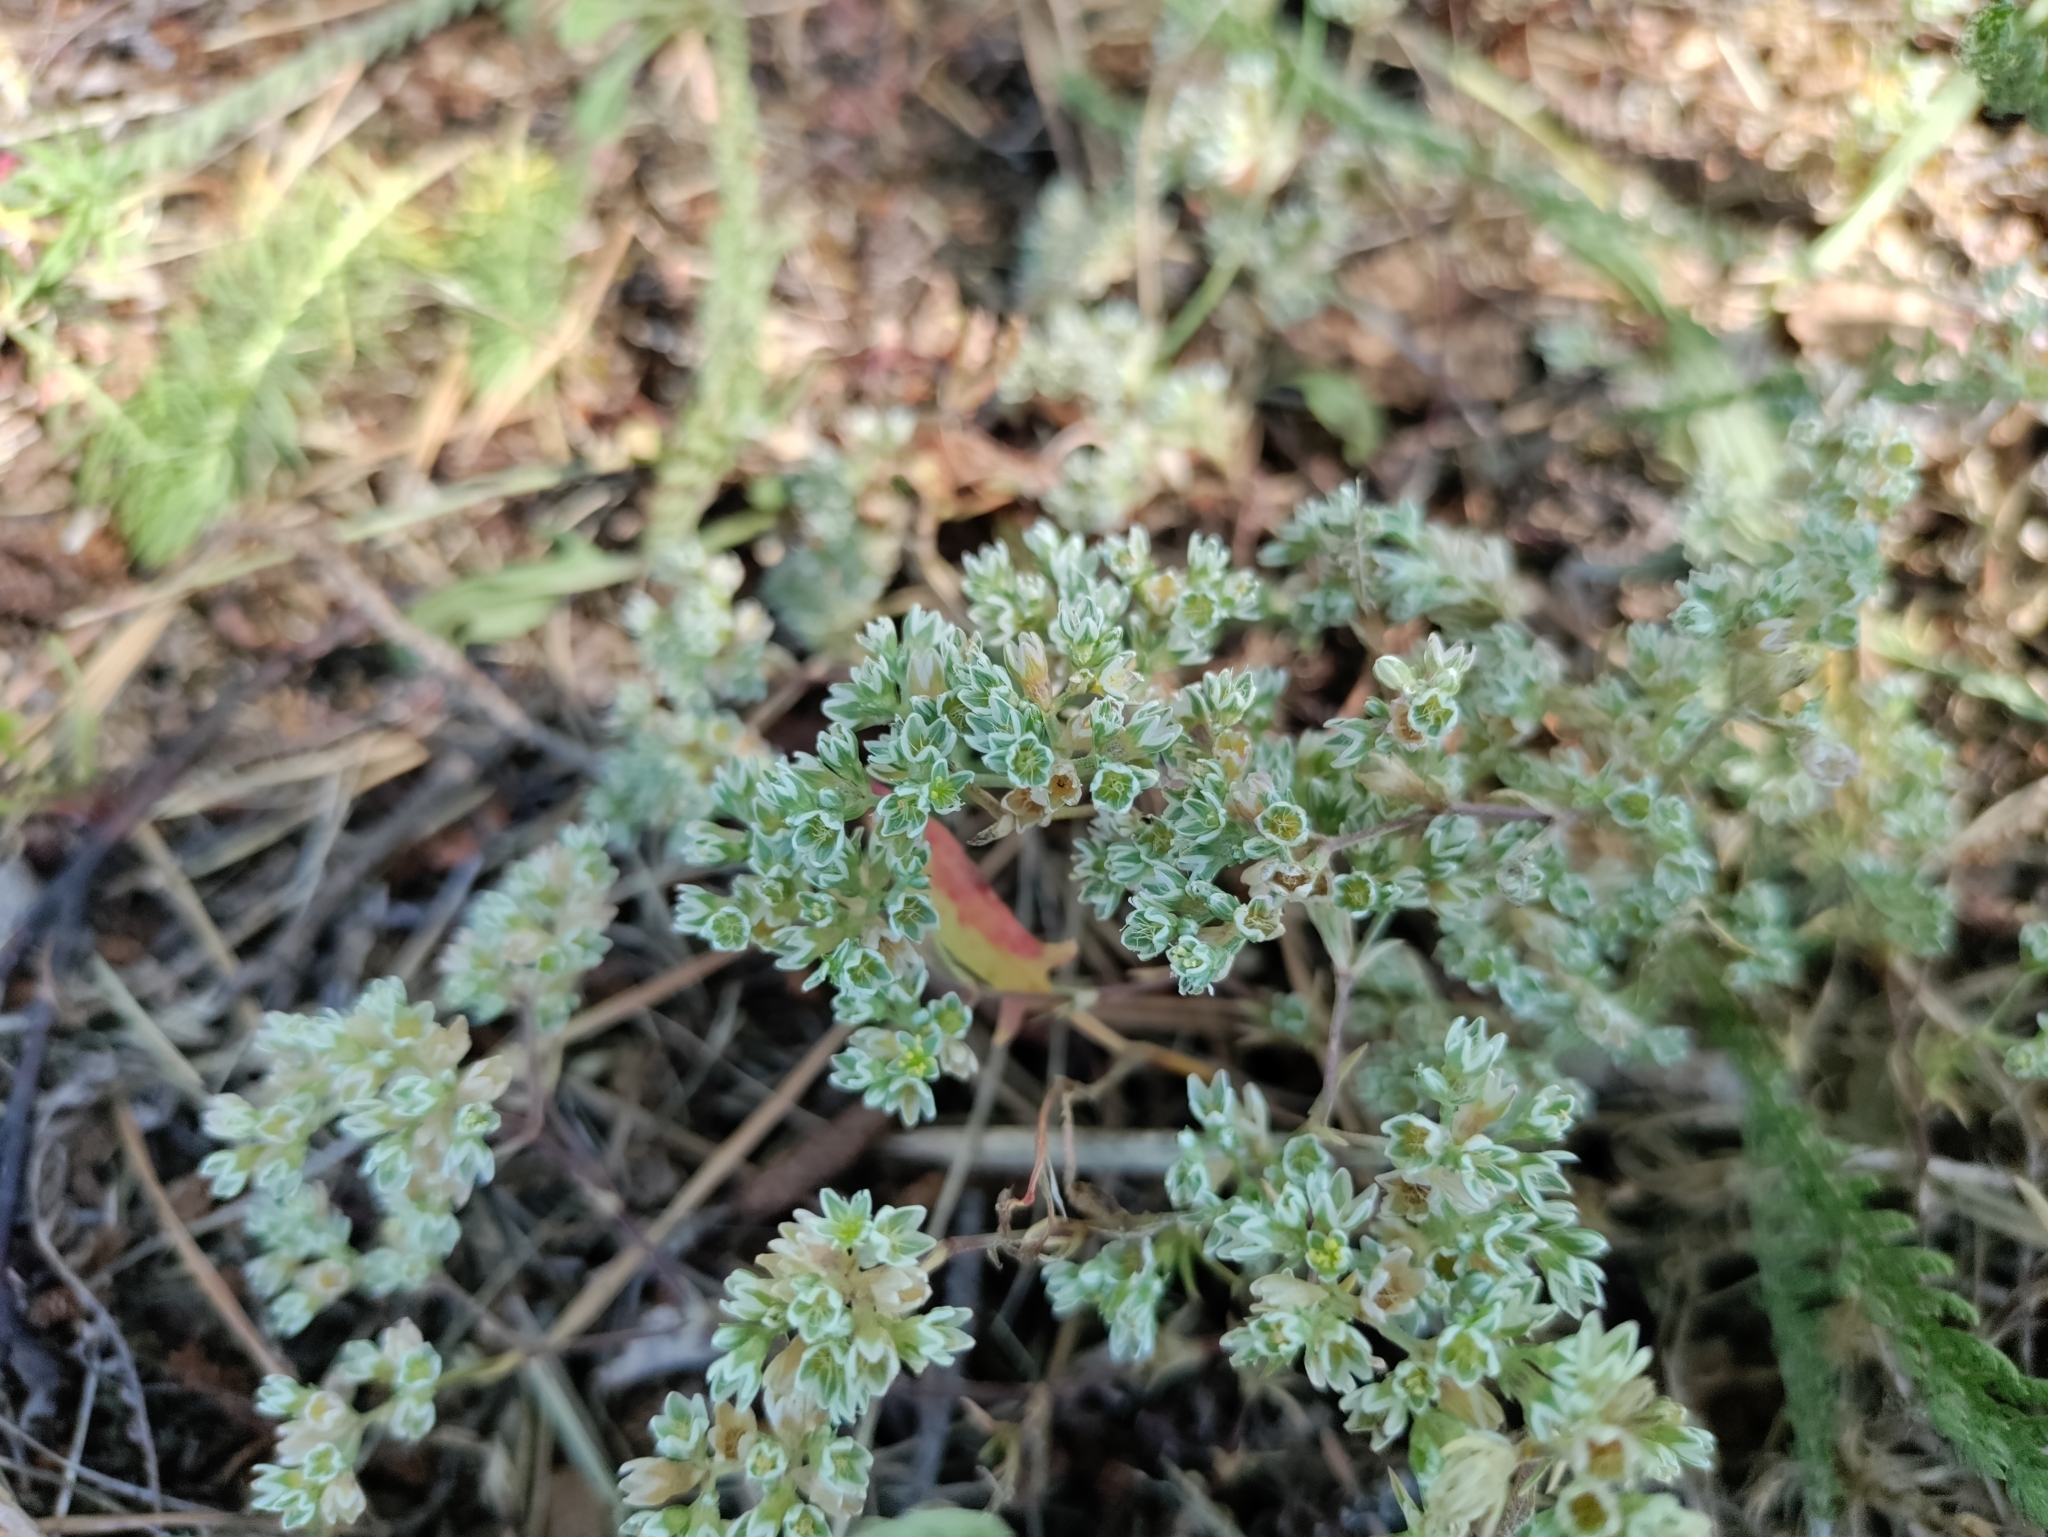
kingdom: Plantae
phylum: Tracheophyta
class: Magnoliopsida
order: Caryophyllales
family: Caryophyllaceae
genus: Scleranthus
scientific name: Scleranthus perennis
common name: Perennial knawel
